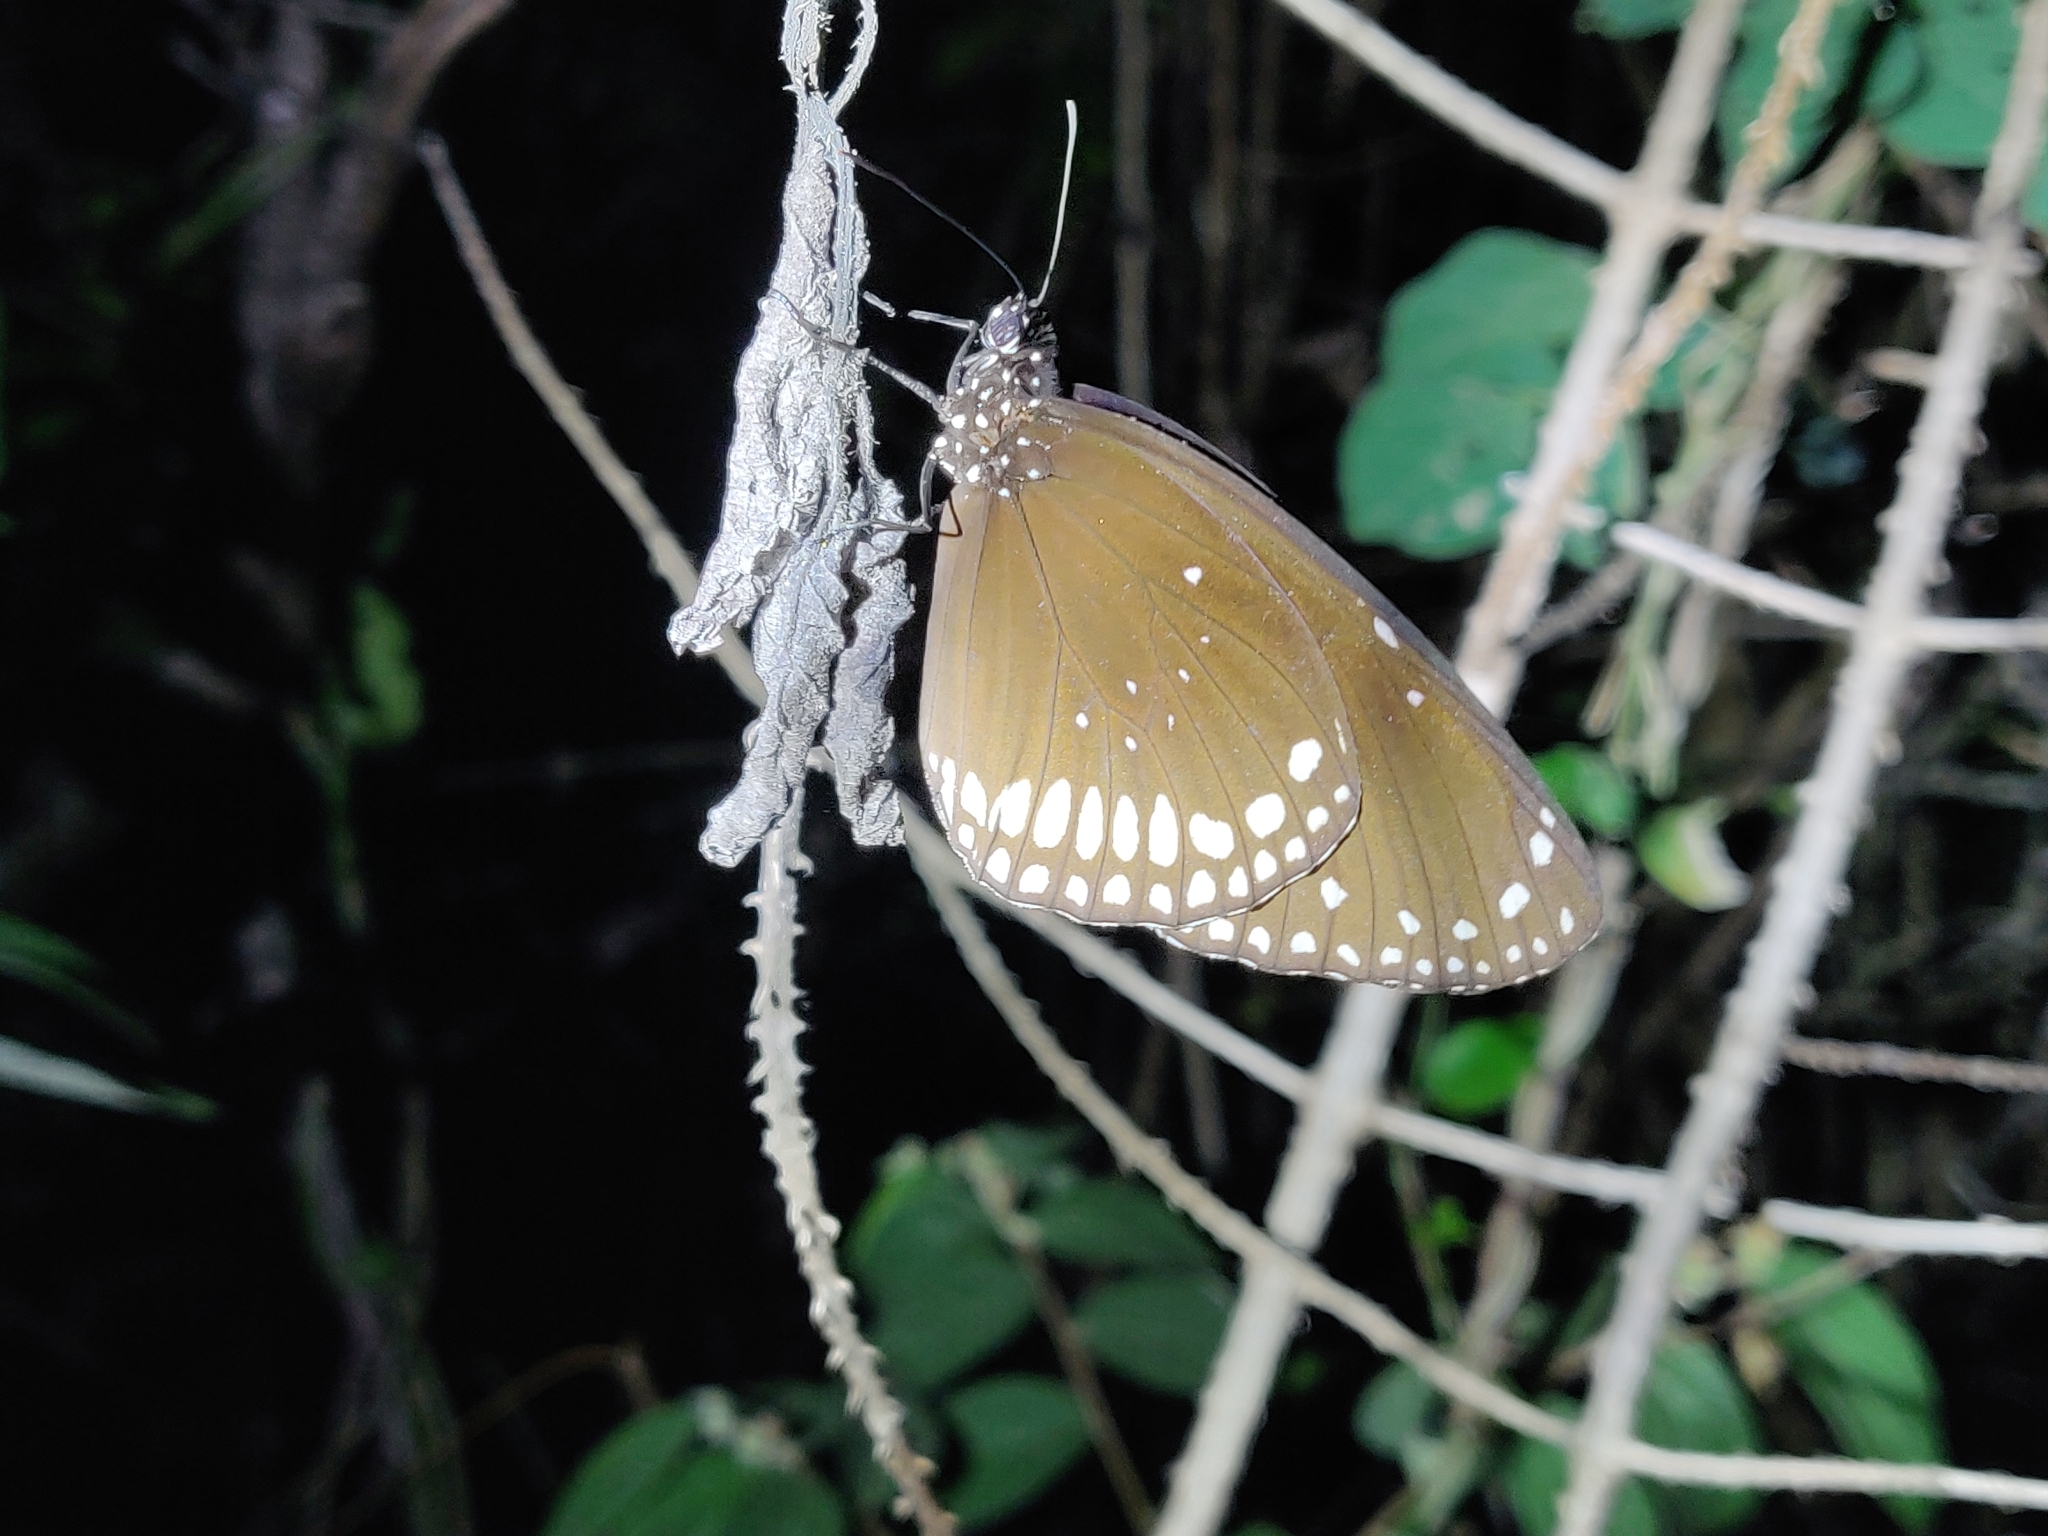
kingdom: Animalia
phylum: Arthropoda
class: Insecta
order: Lepidoptera
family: Nymphalidae
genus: Euploea
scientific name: Euploea core
